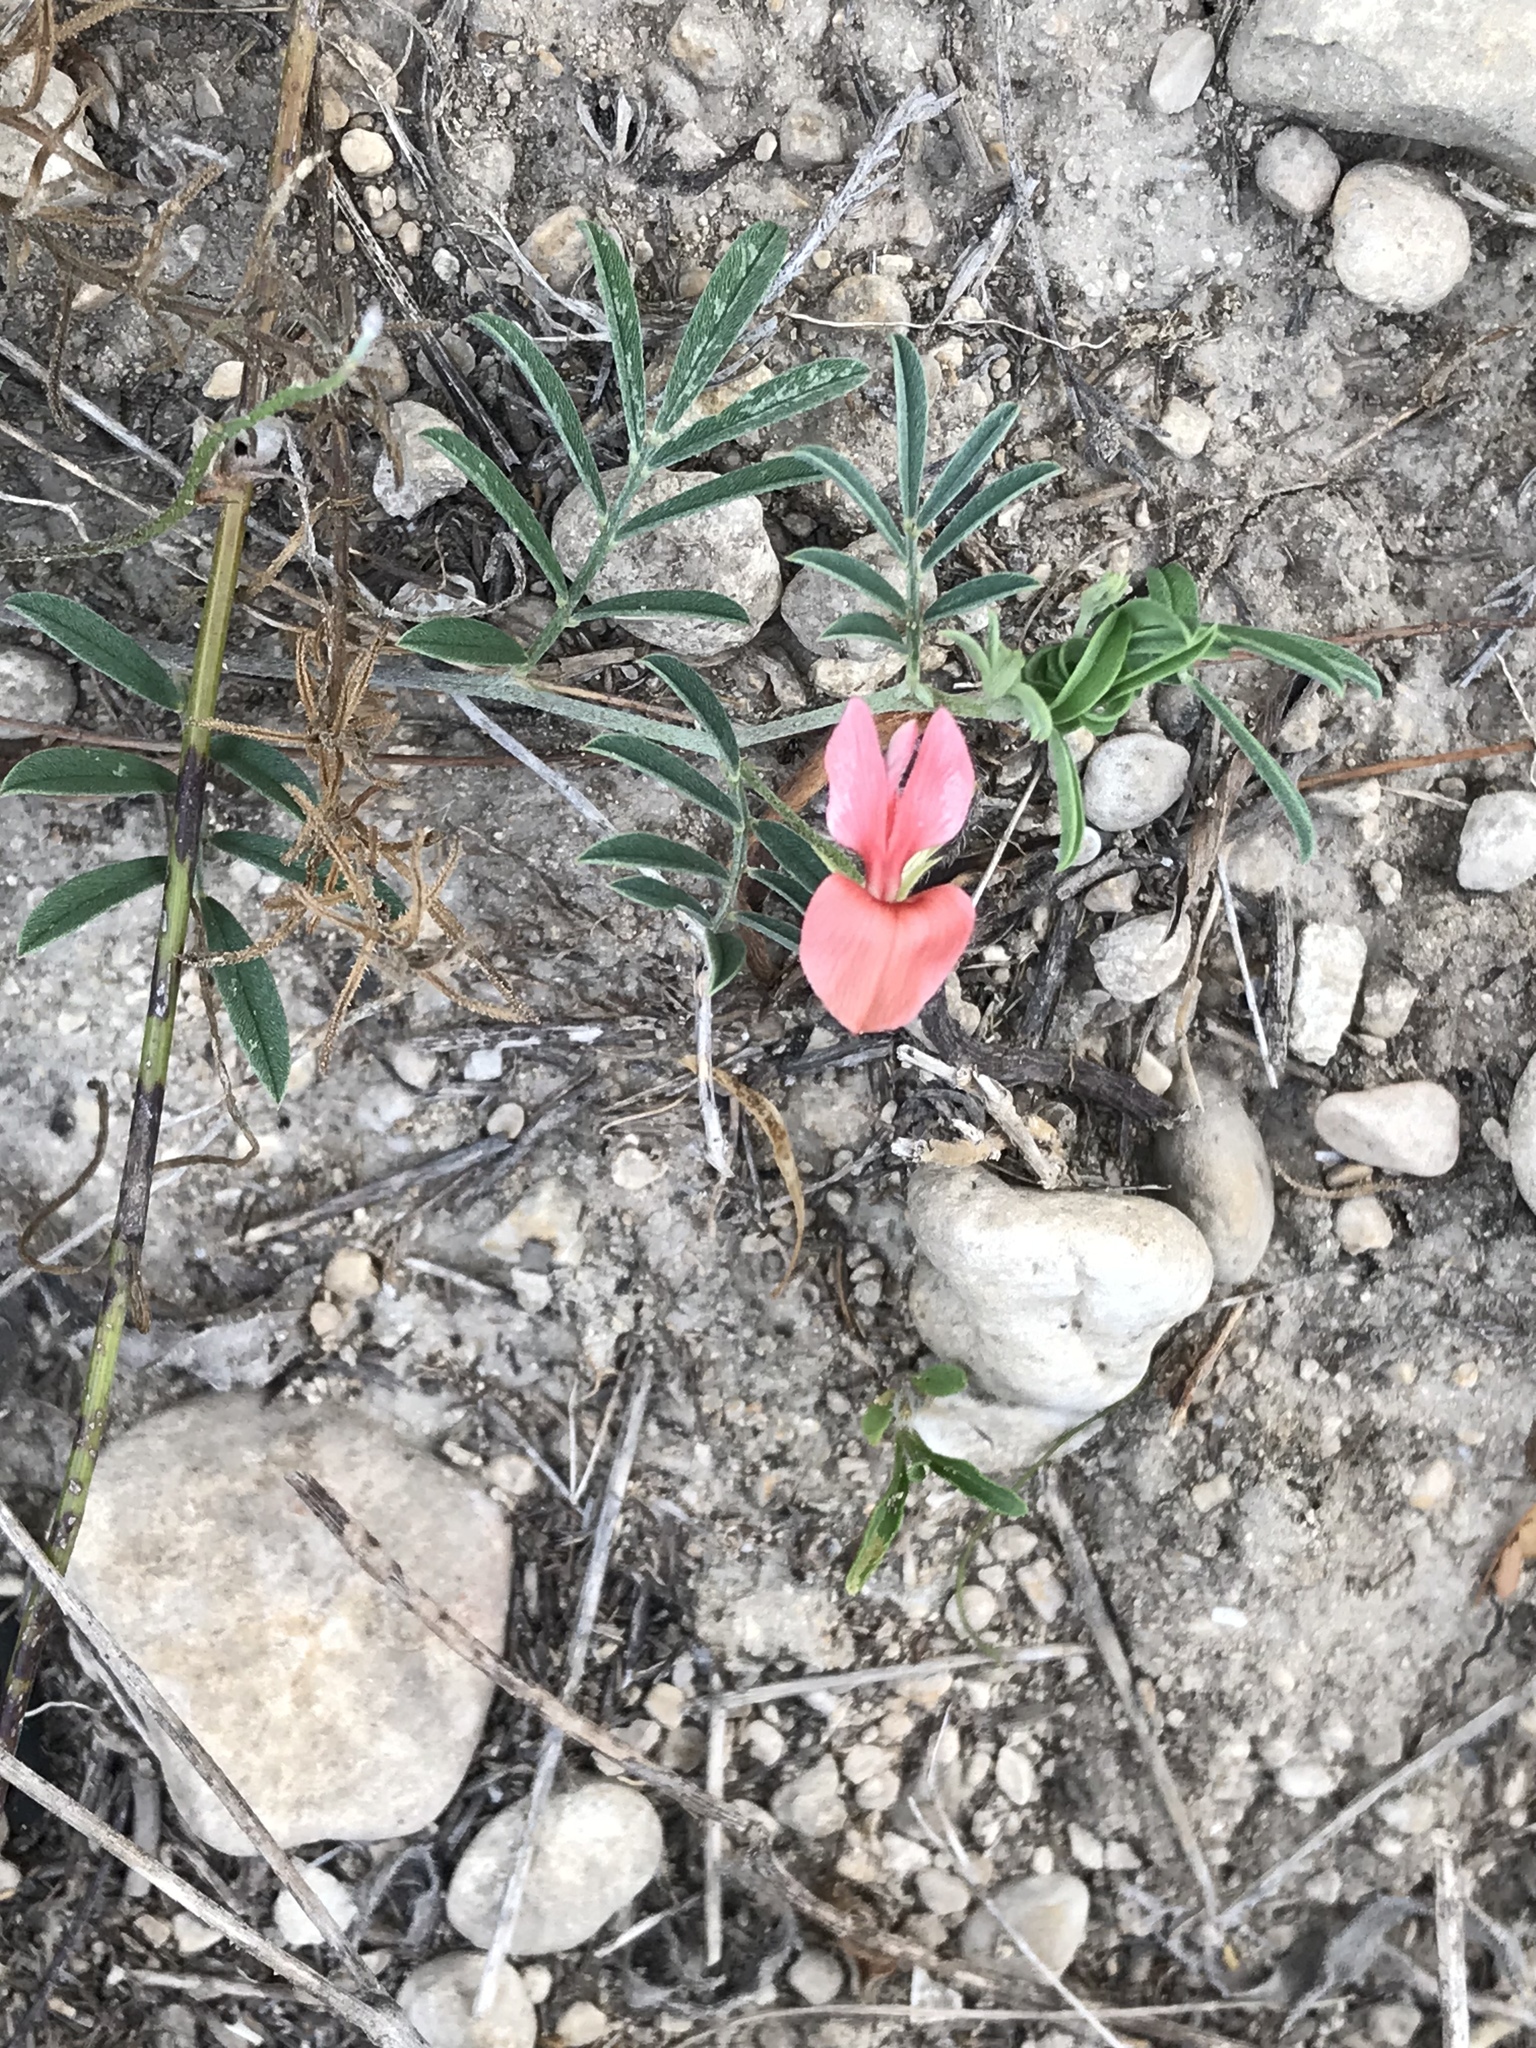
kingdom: Plantae
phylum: Tracheophyta
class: Magnoliopsida
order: Fabales
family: Fabaceae
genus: Indigofera
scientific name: Indigofera miniata
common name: Coast indigo
